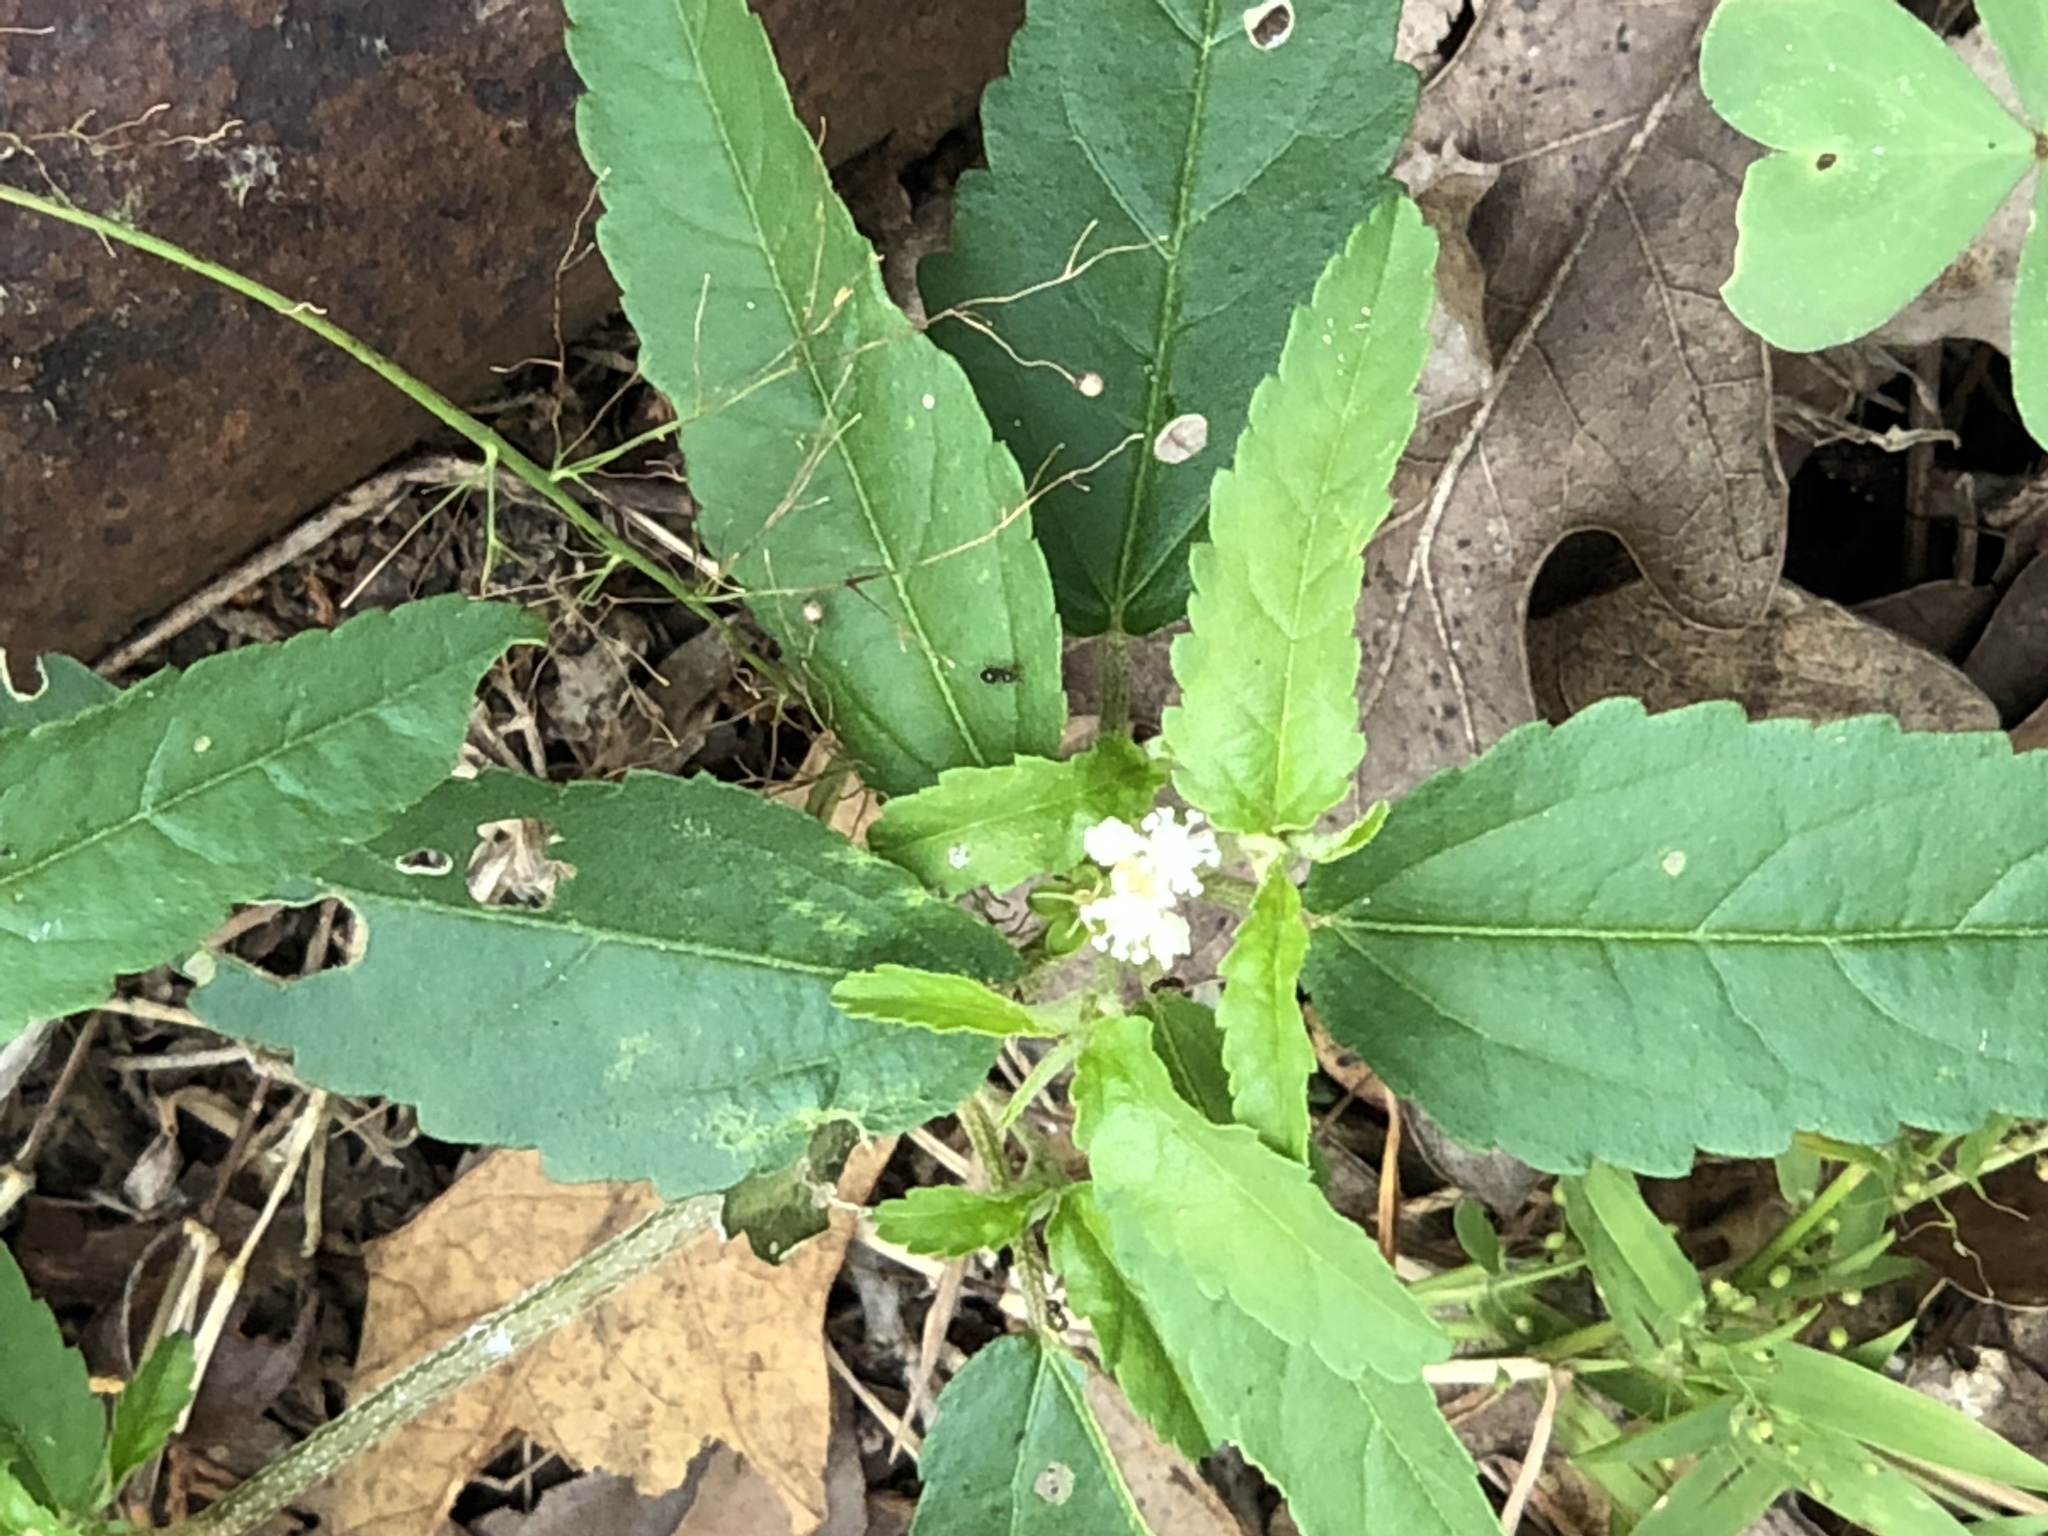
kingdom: Plantae
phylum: Tracheophyta
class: Magnoliopsida
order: Malpighiales
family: Euphorbiaceae
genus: Croton
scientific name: Croton glandulosus
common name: Tropic croton
